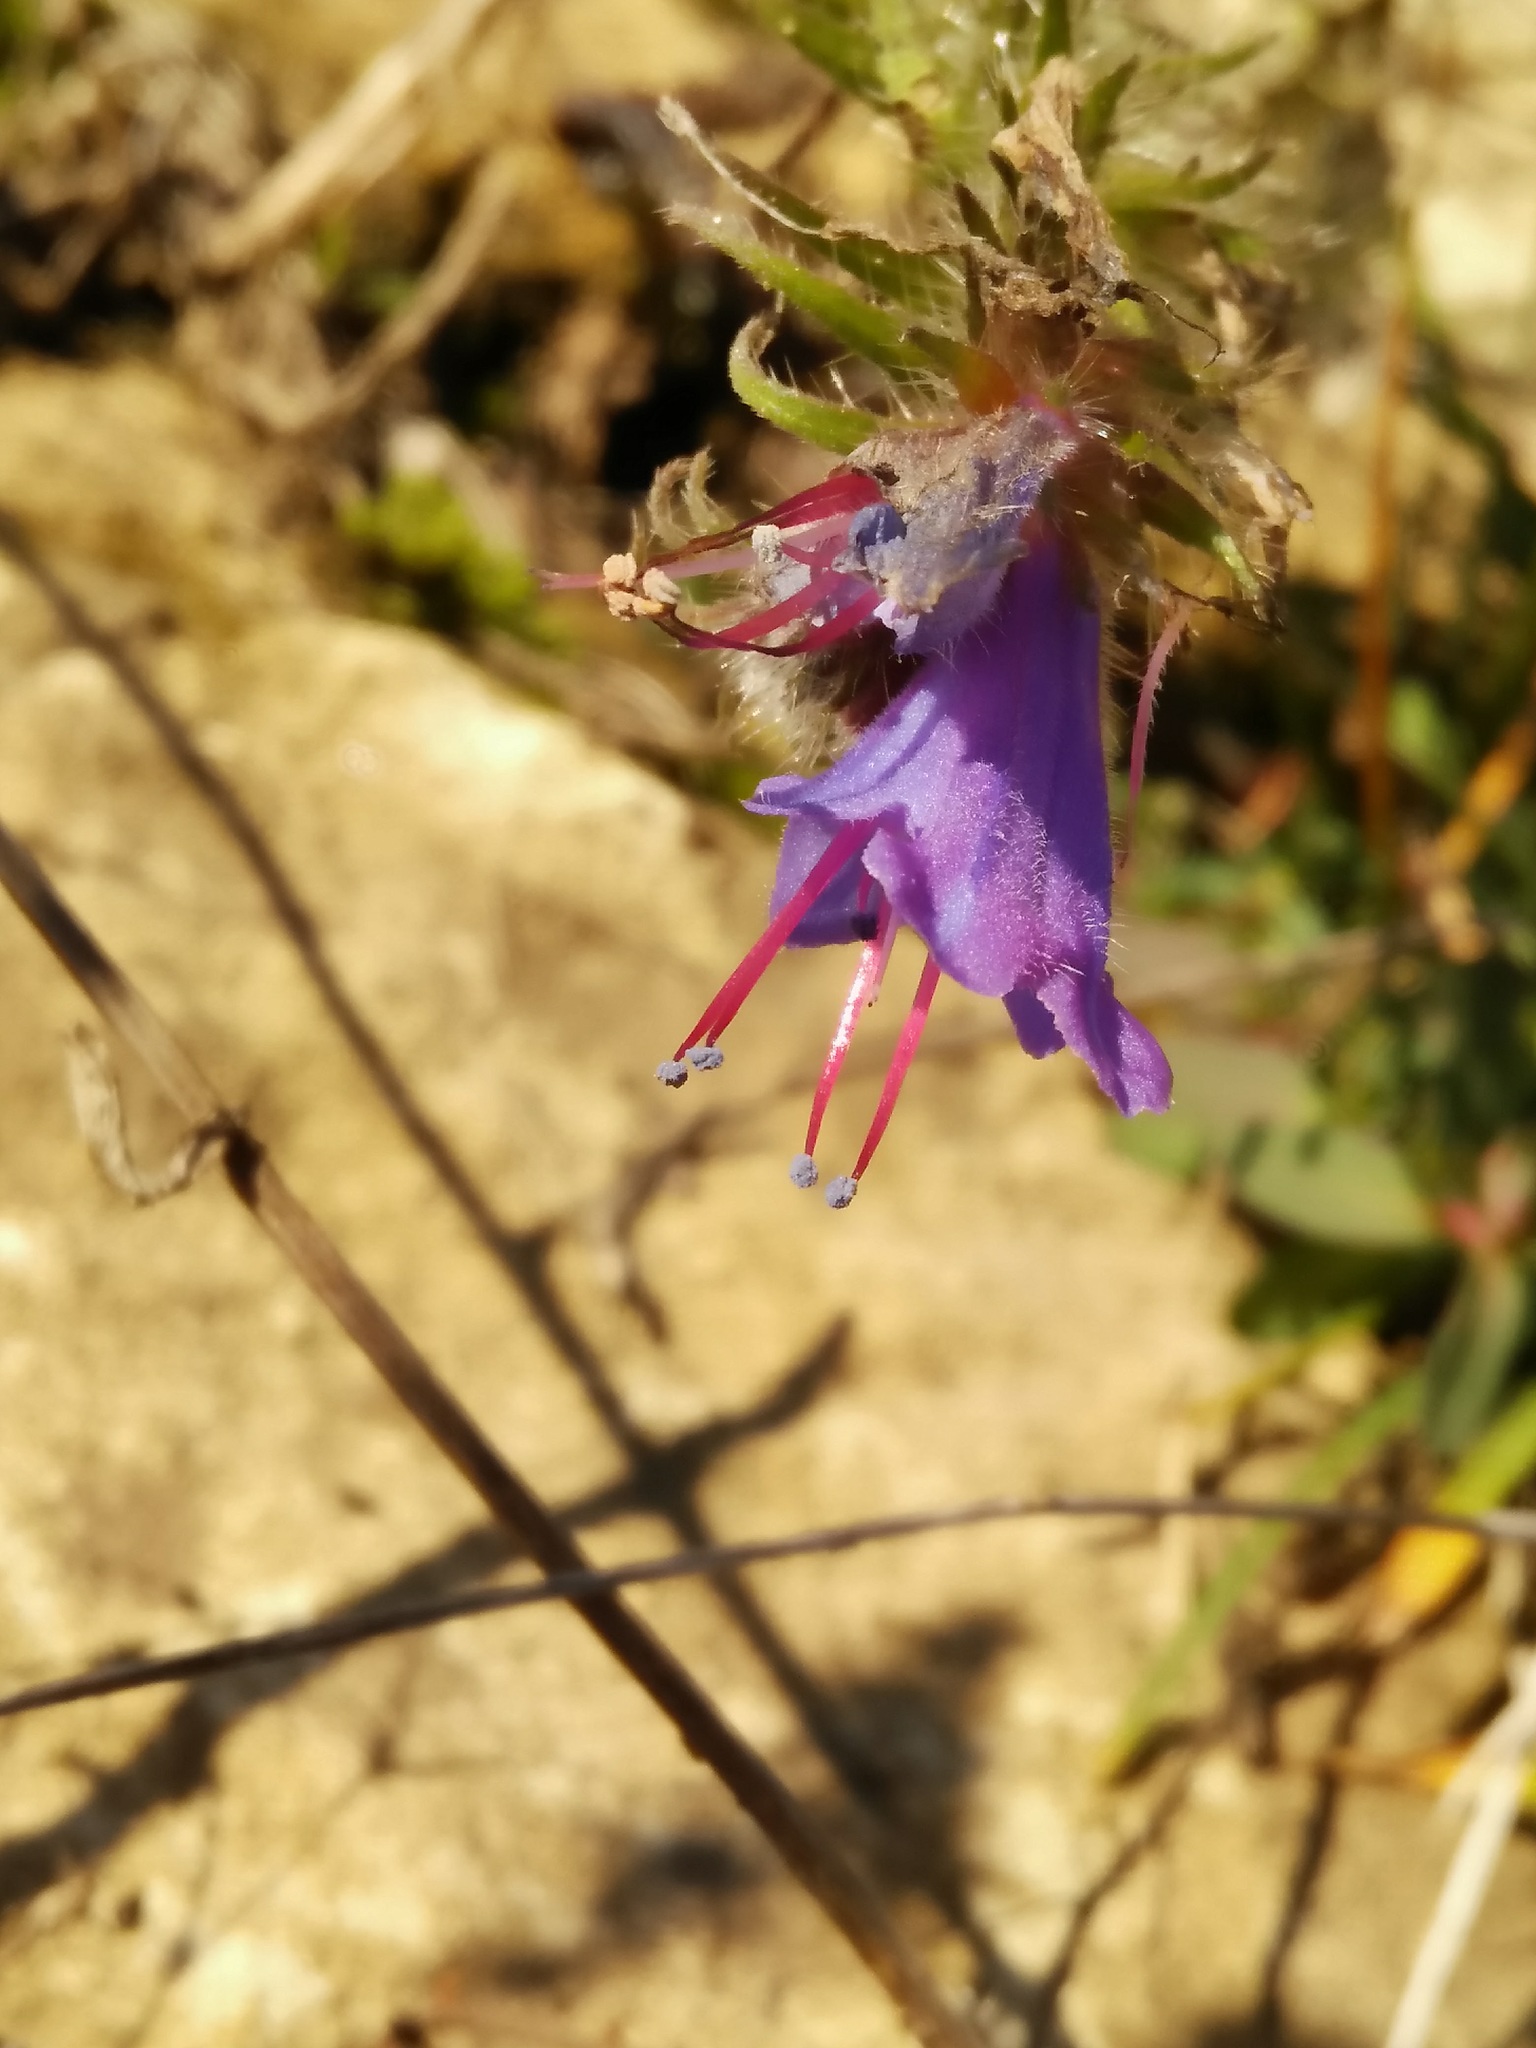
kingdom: Plantae
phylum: Tracheophyta
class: Magnoliopsida
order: Boraginales
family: Boraginaceae
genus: Echium
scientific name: Echium vulgare
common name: Common viper's bugloss
